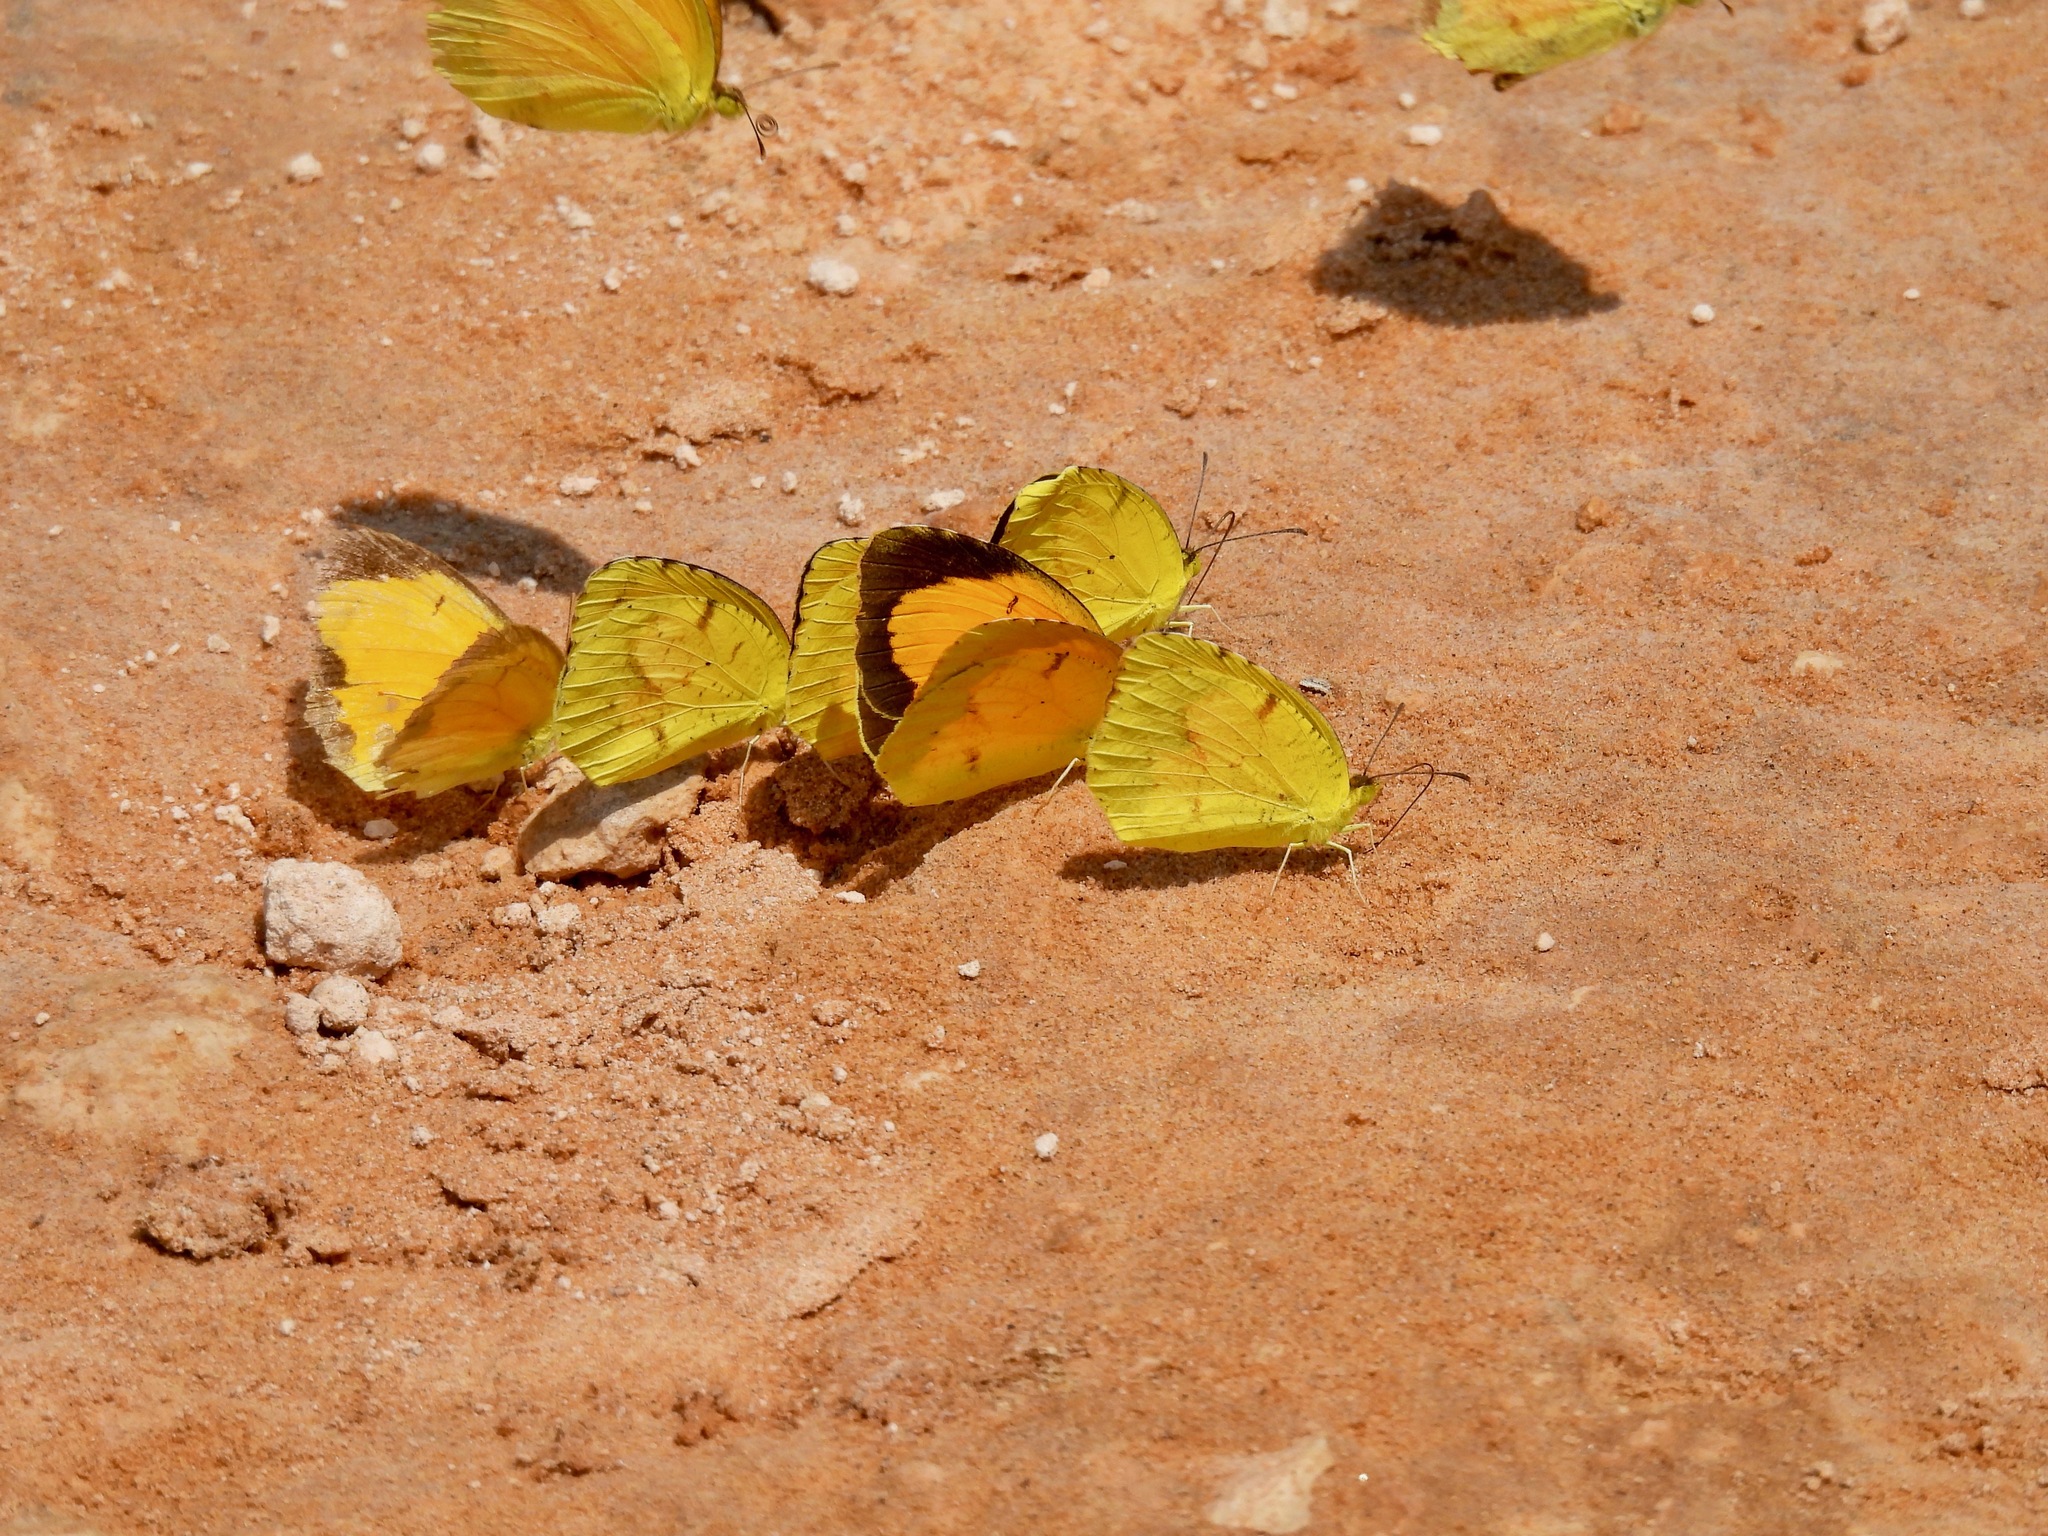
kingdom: Animalia
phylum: Arthropoda
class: Insecta
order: Lepidoptera
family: Pieridae
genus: Abaeis
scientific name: Abaeis nicippe
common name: Sleepy orange
